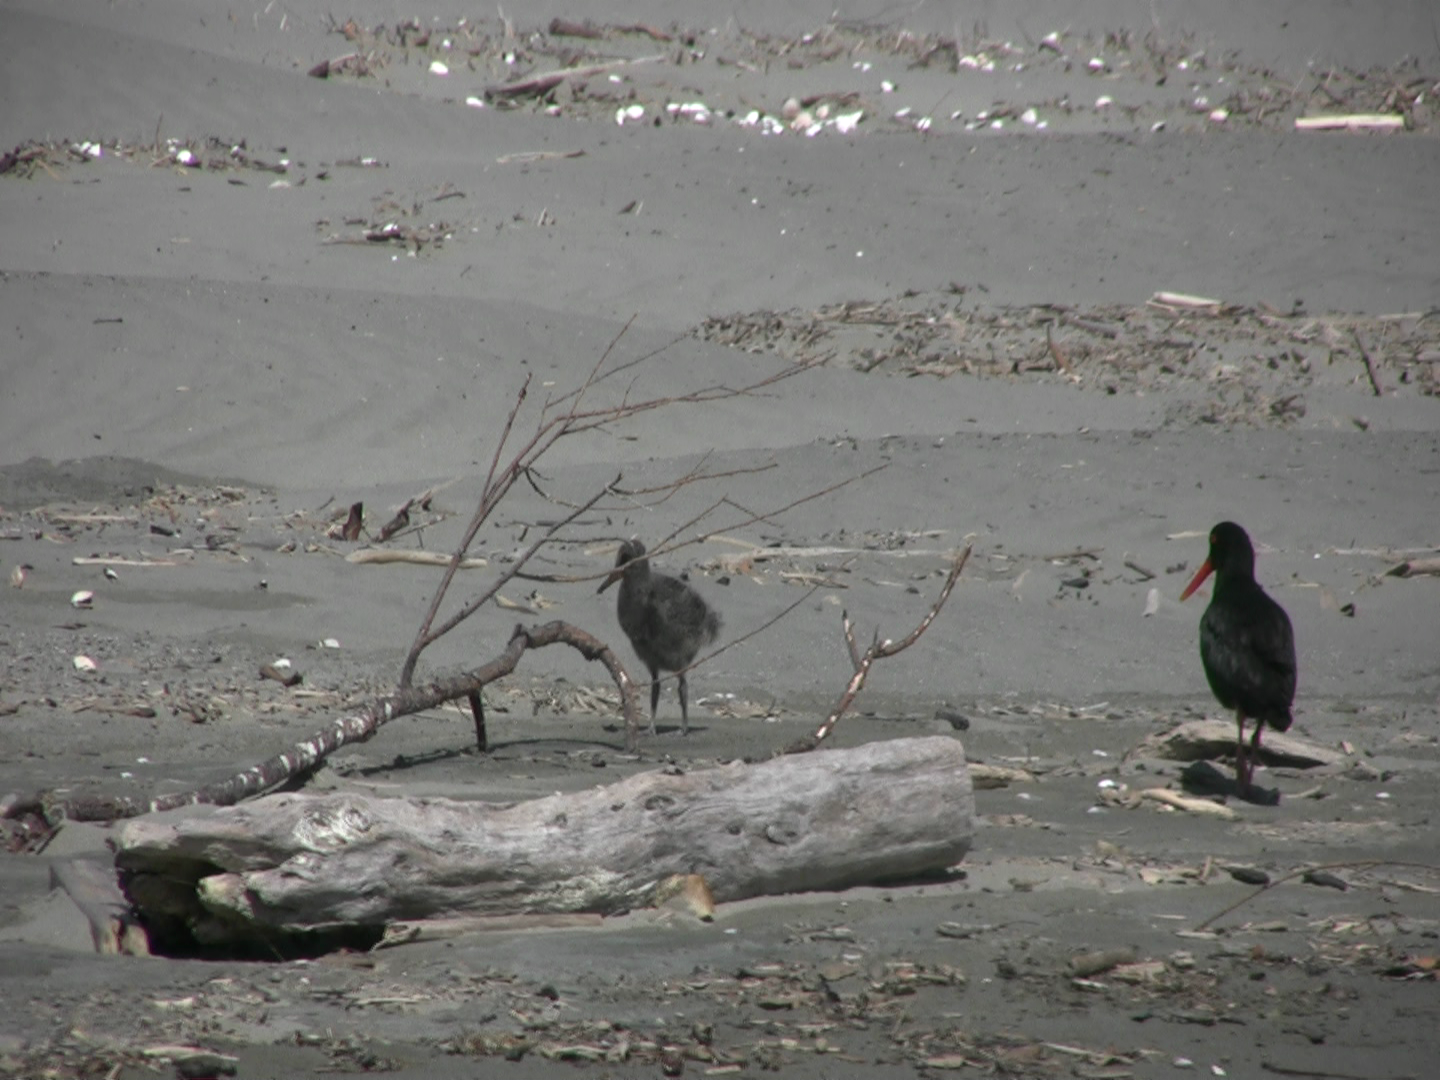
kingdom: Animalia
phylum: Chordata
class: Aves
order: Charadriiformes
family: Haematopodidae
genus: Haematopus
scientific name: Haematopus unicolor
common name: Variable oystercatcher
